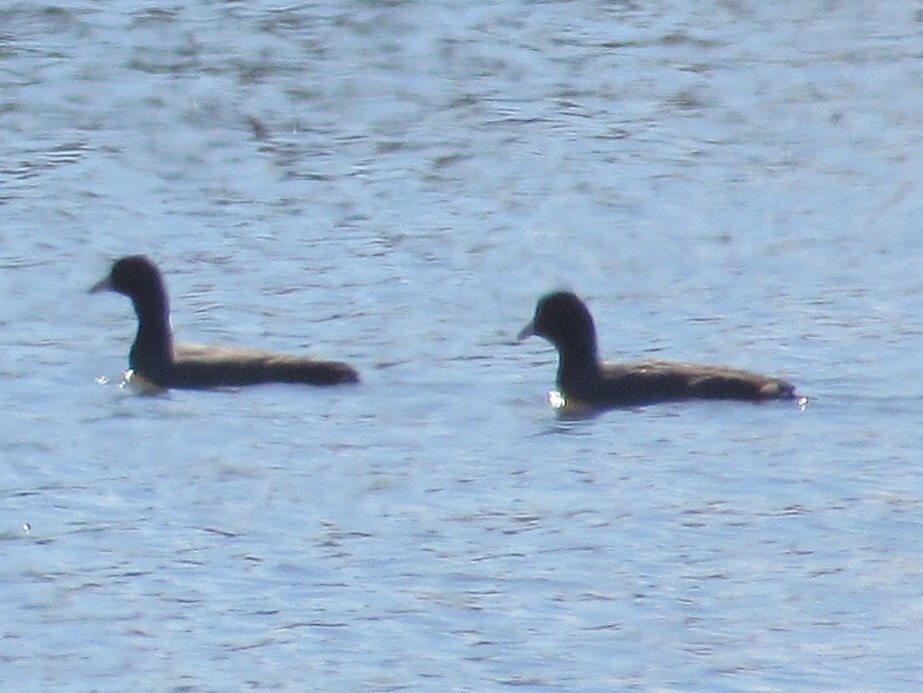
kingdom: Animalia
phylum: Chordata
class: Aves
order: Gruiformes
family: Rallidae
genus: Fulica
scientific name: Fulica americana
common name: American coot
